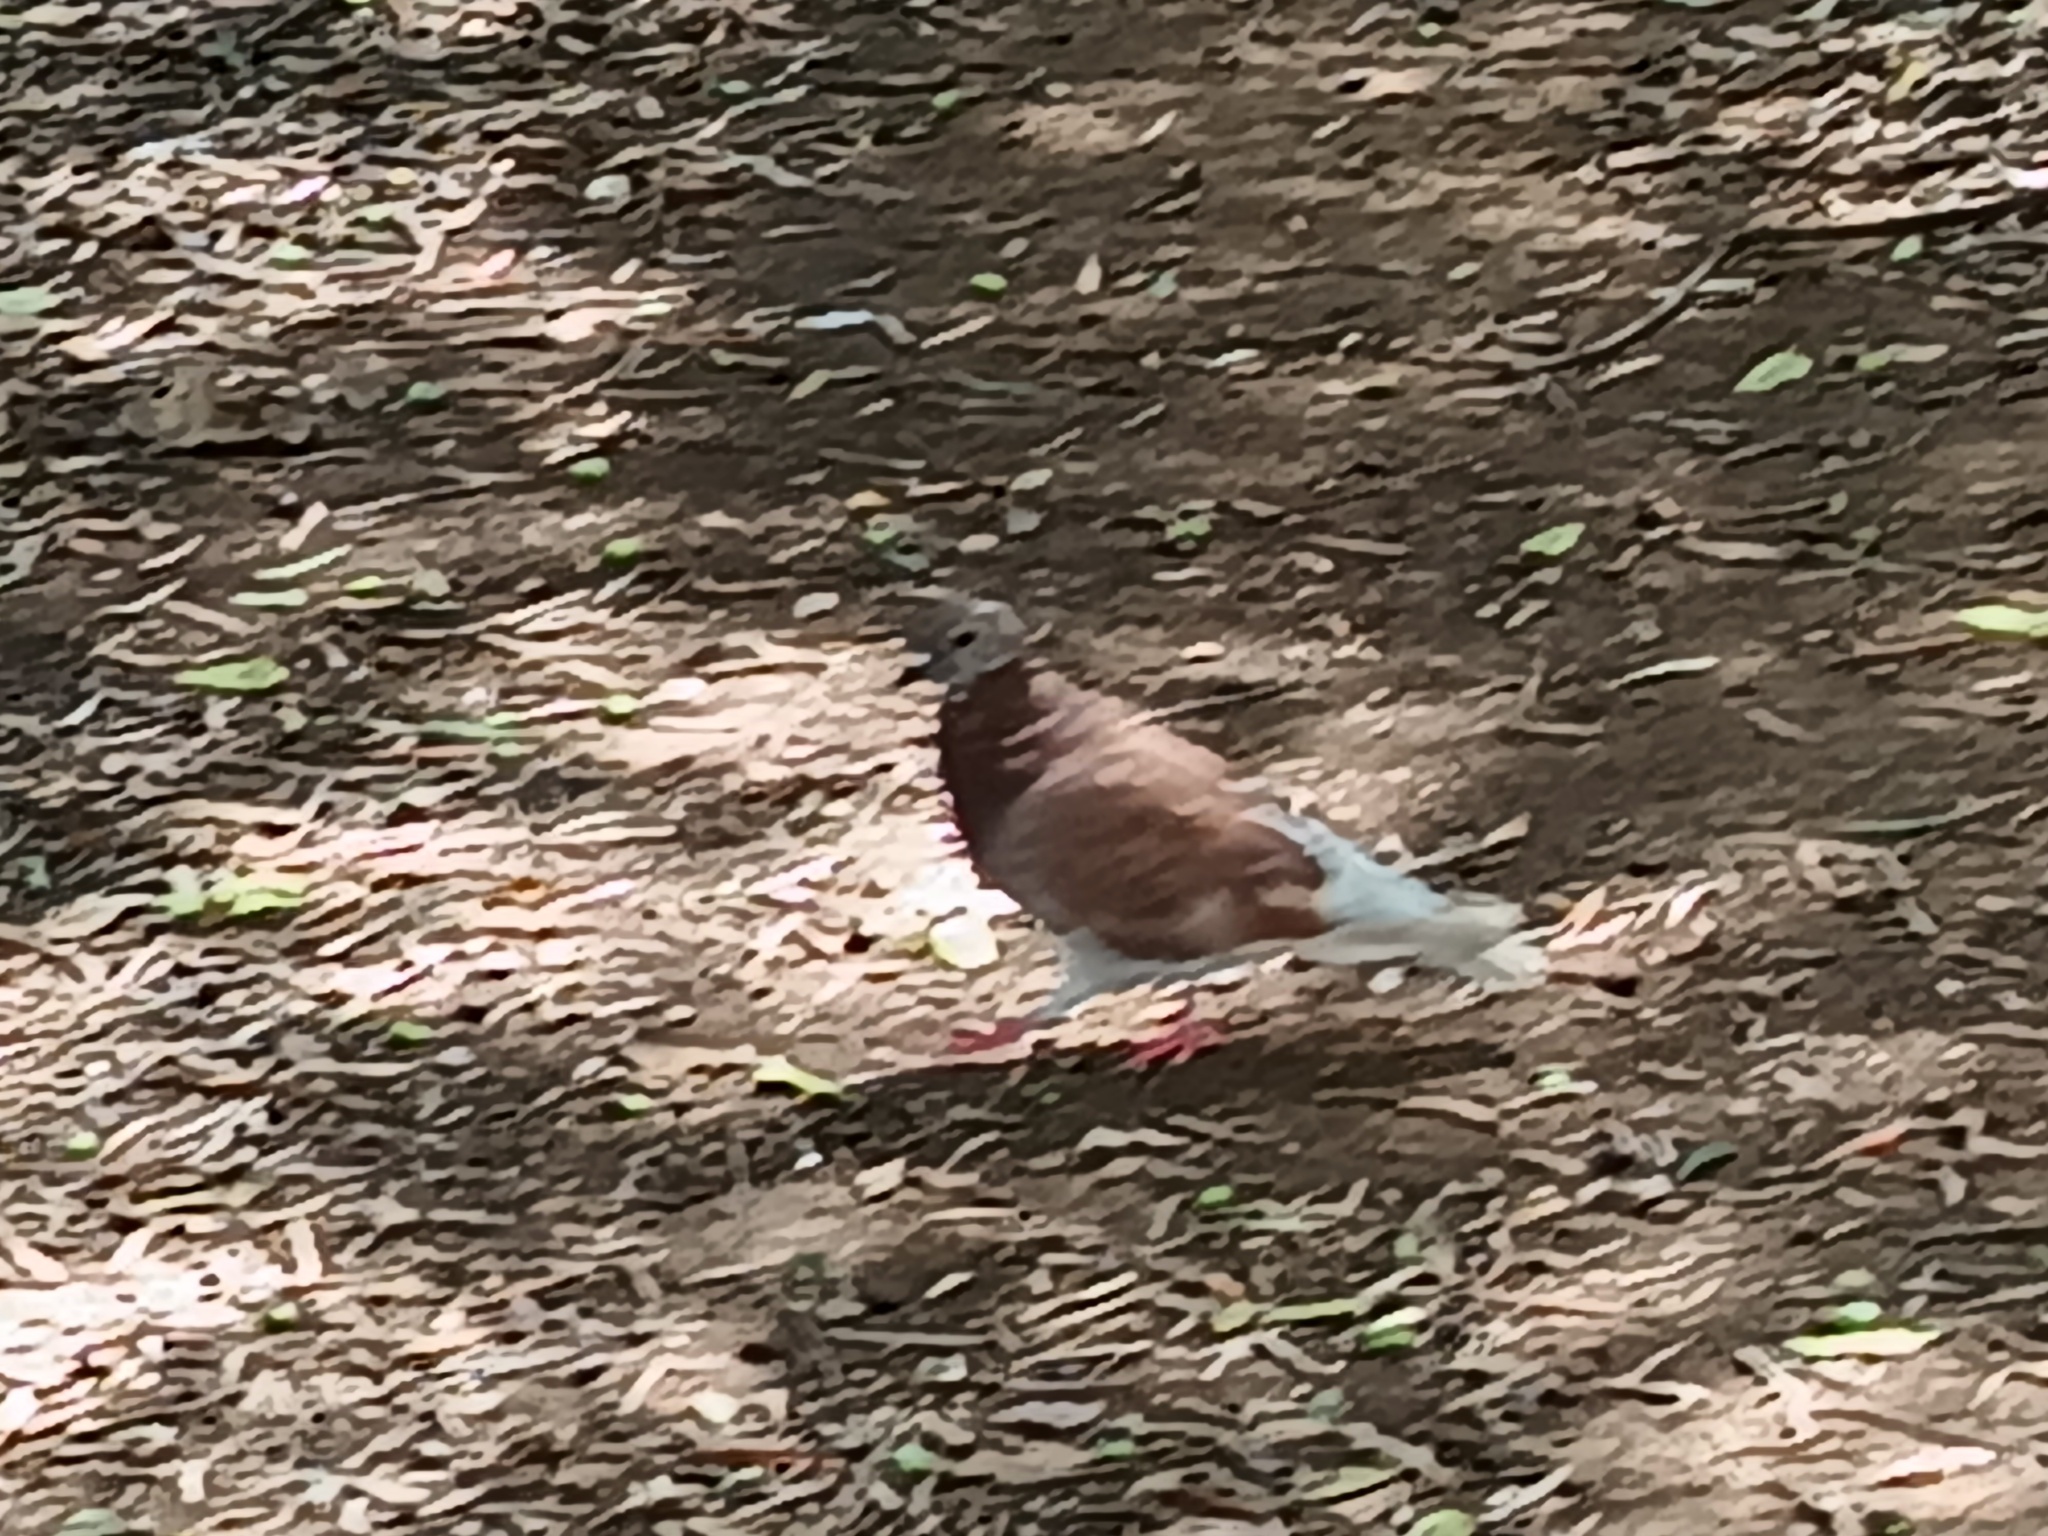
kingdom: Animalia
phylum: Chordata
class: Aves
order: Columbiformes
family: Columbidae
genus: Columba
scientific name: Columba livia
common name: Rock pigeon
